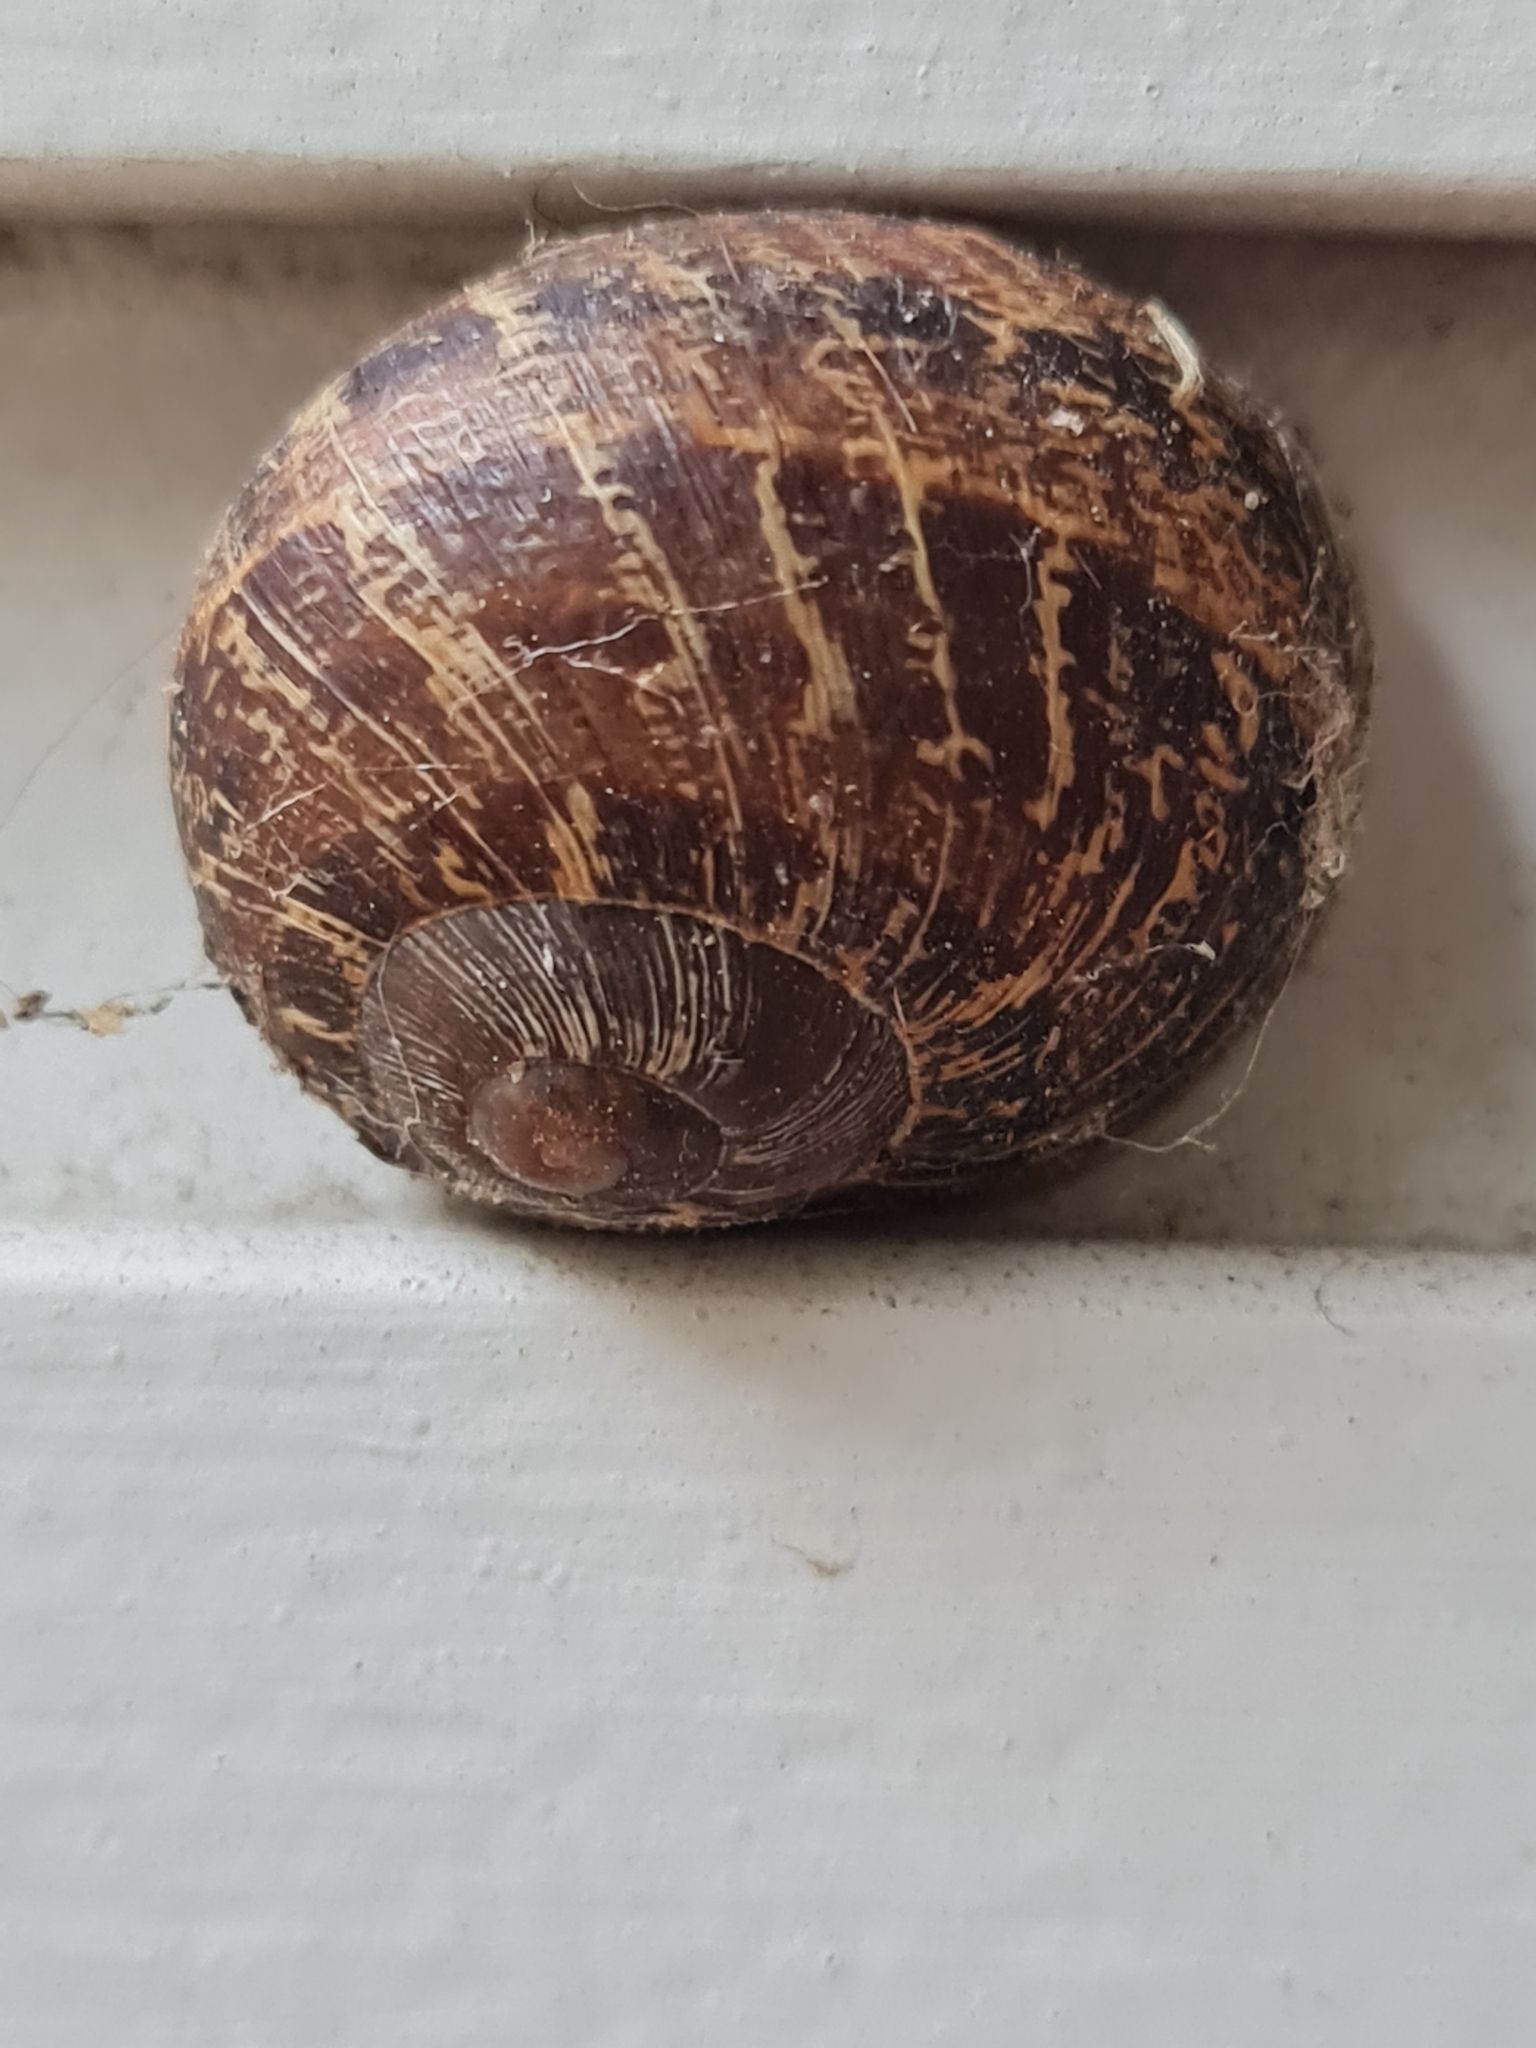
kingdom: Animalia
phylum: Mollusca
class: Gastropoda
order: Stylommatophora
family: Helicidae
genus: Cornu
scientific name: Cornu aspersum
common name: Brown garden snail
